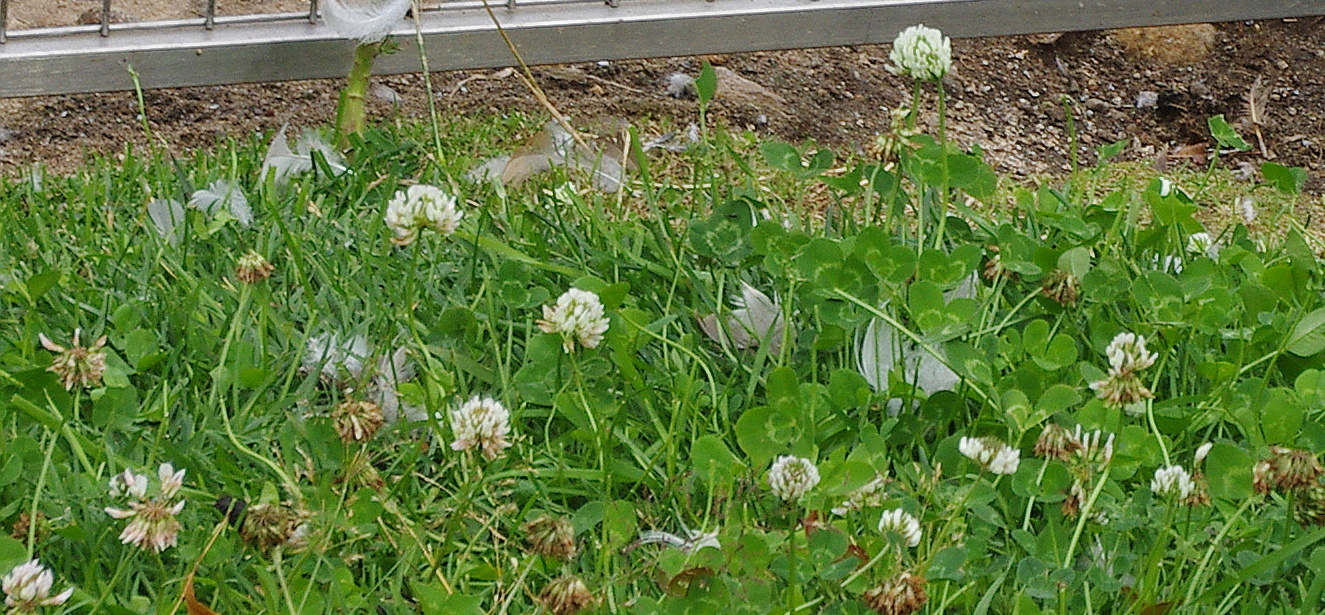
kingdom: Plantae
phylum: Tracheophyta
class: Magnoliopsida
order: Fabales
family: Fabaceae
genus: Trifolium
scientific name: Trifolium repens
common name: White clover
